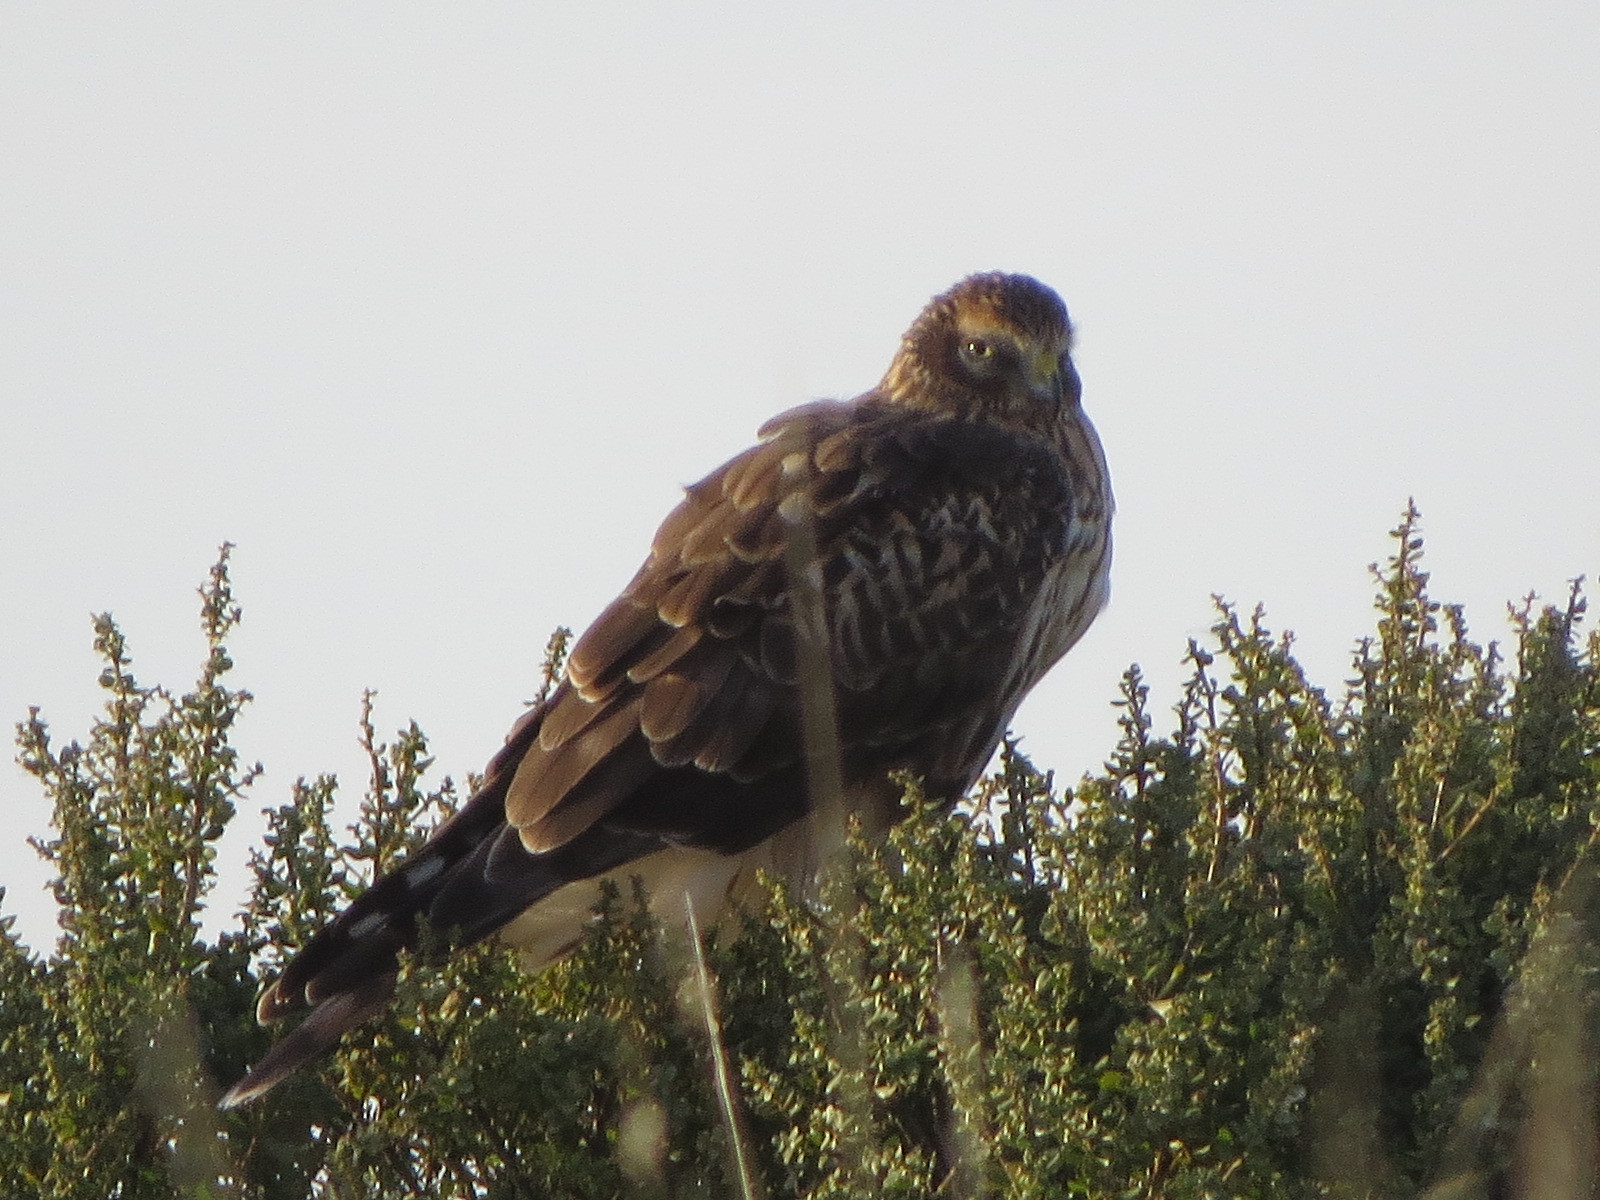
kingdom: Animalia
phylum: Chordata
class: Aves
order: Accipitriformes
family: Accipitridae
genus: Circus
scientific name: Circus cyaneus
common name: Hen harrier
